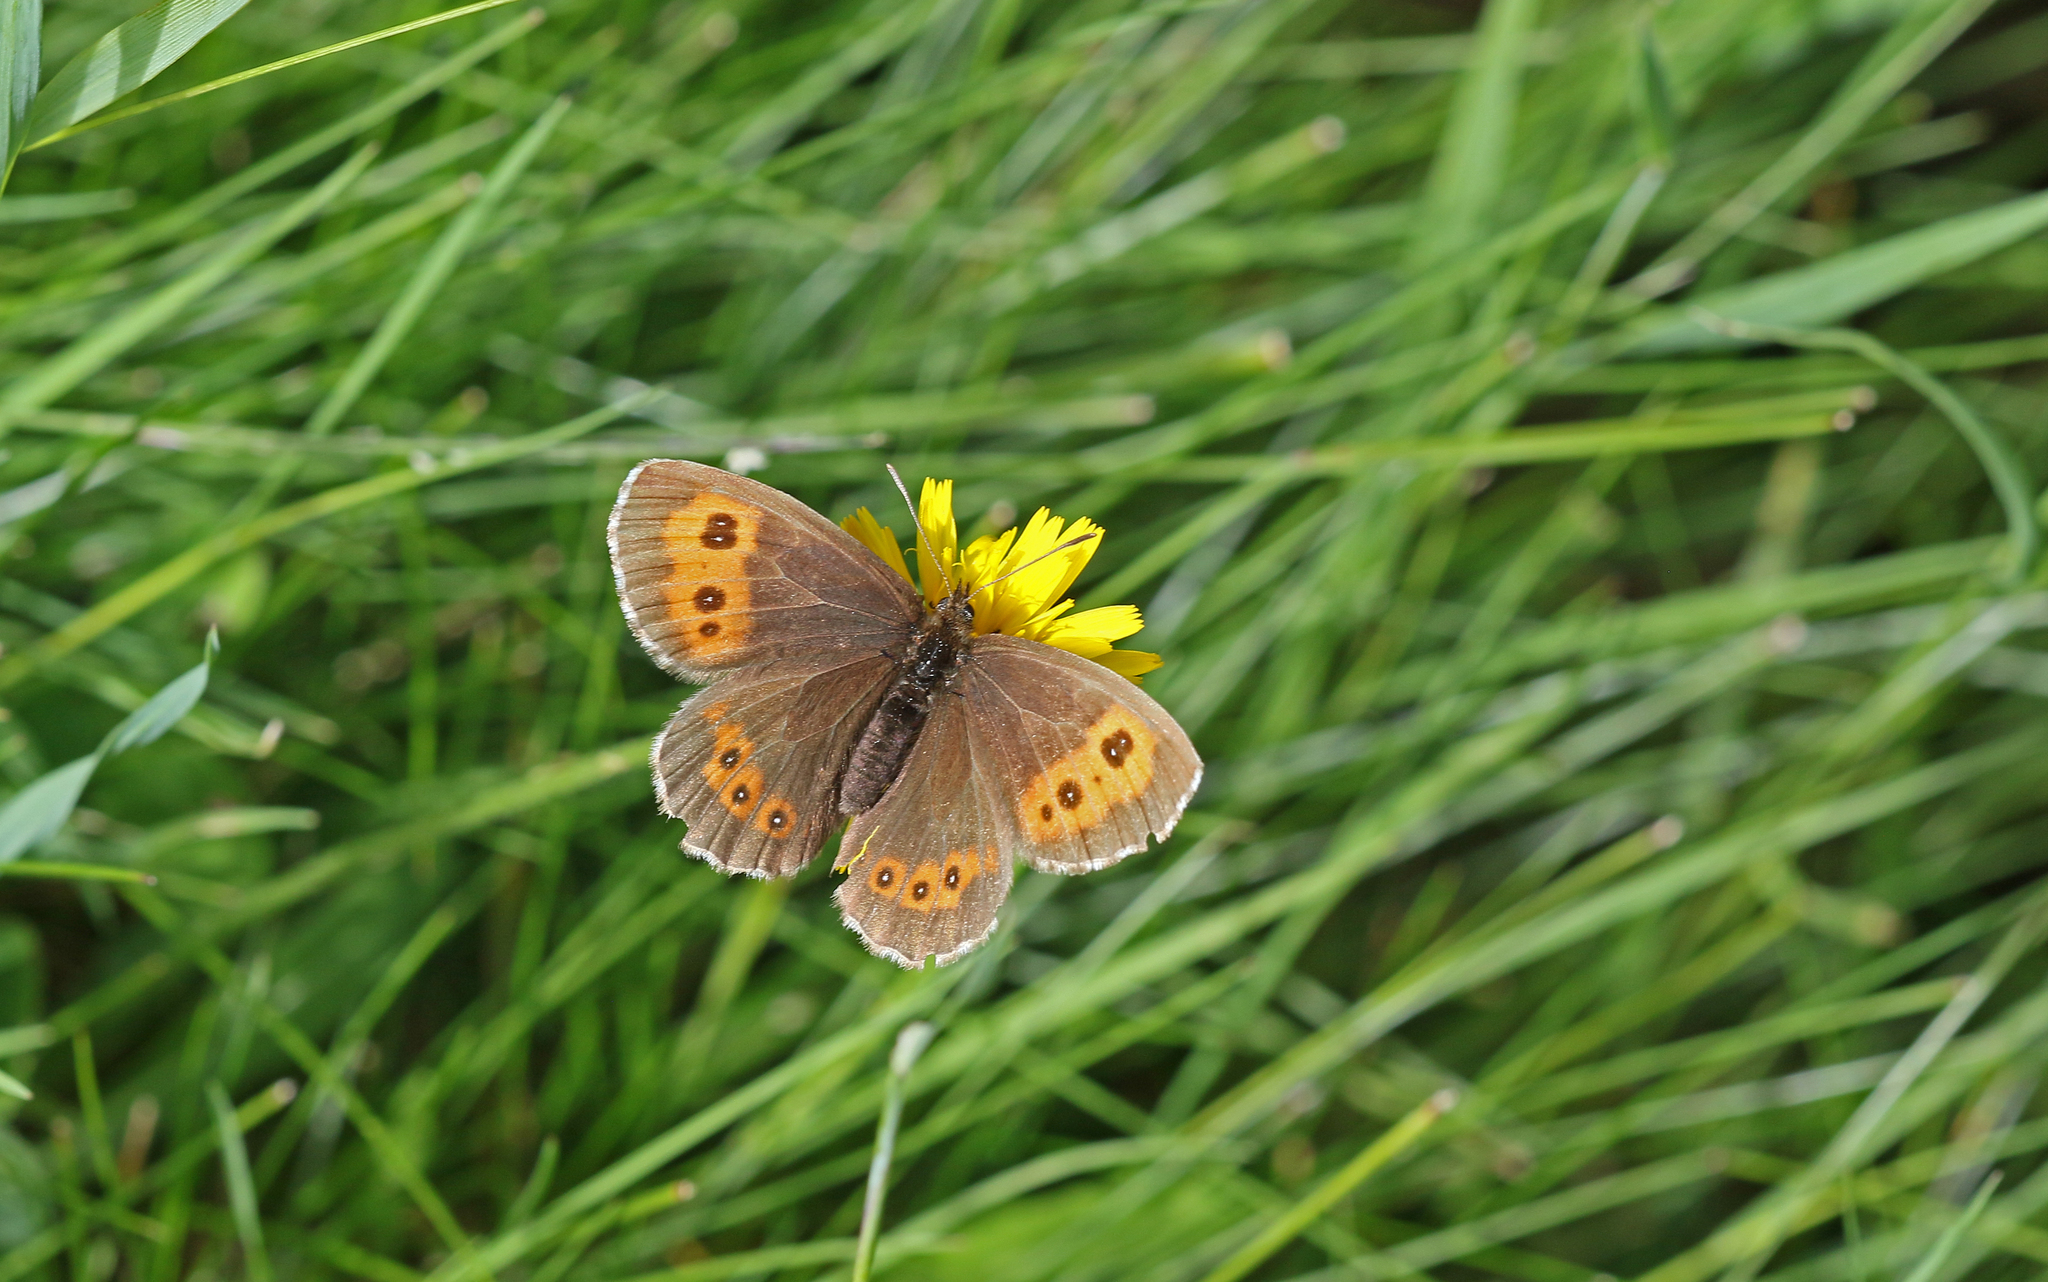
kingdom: Animalia
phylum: Arthropoda
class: Insecta
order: Lepidoptera
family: Nymphalidae
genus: Erebia
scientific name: Erebia ligea
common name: Arran brown
